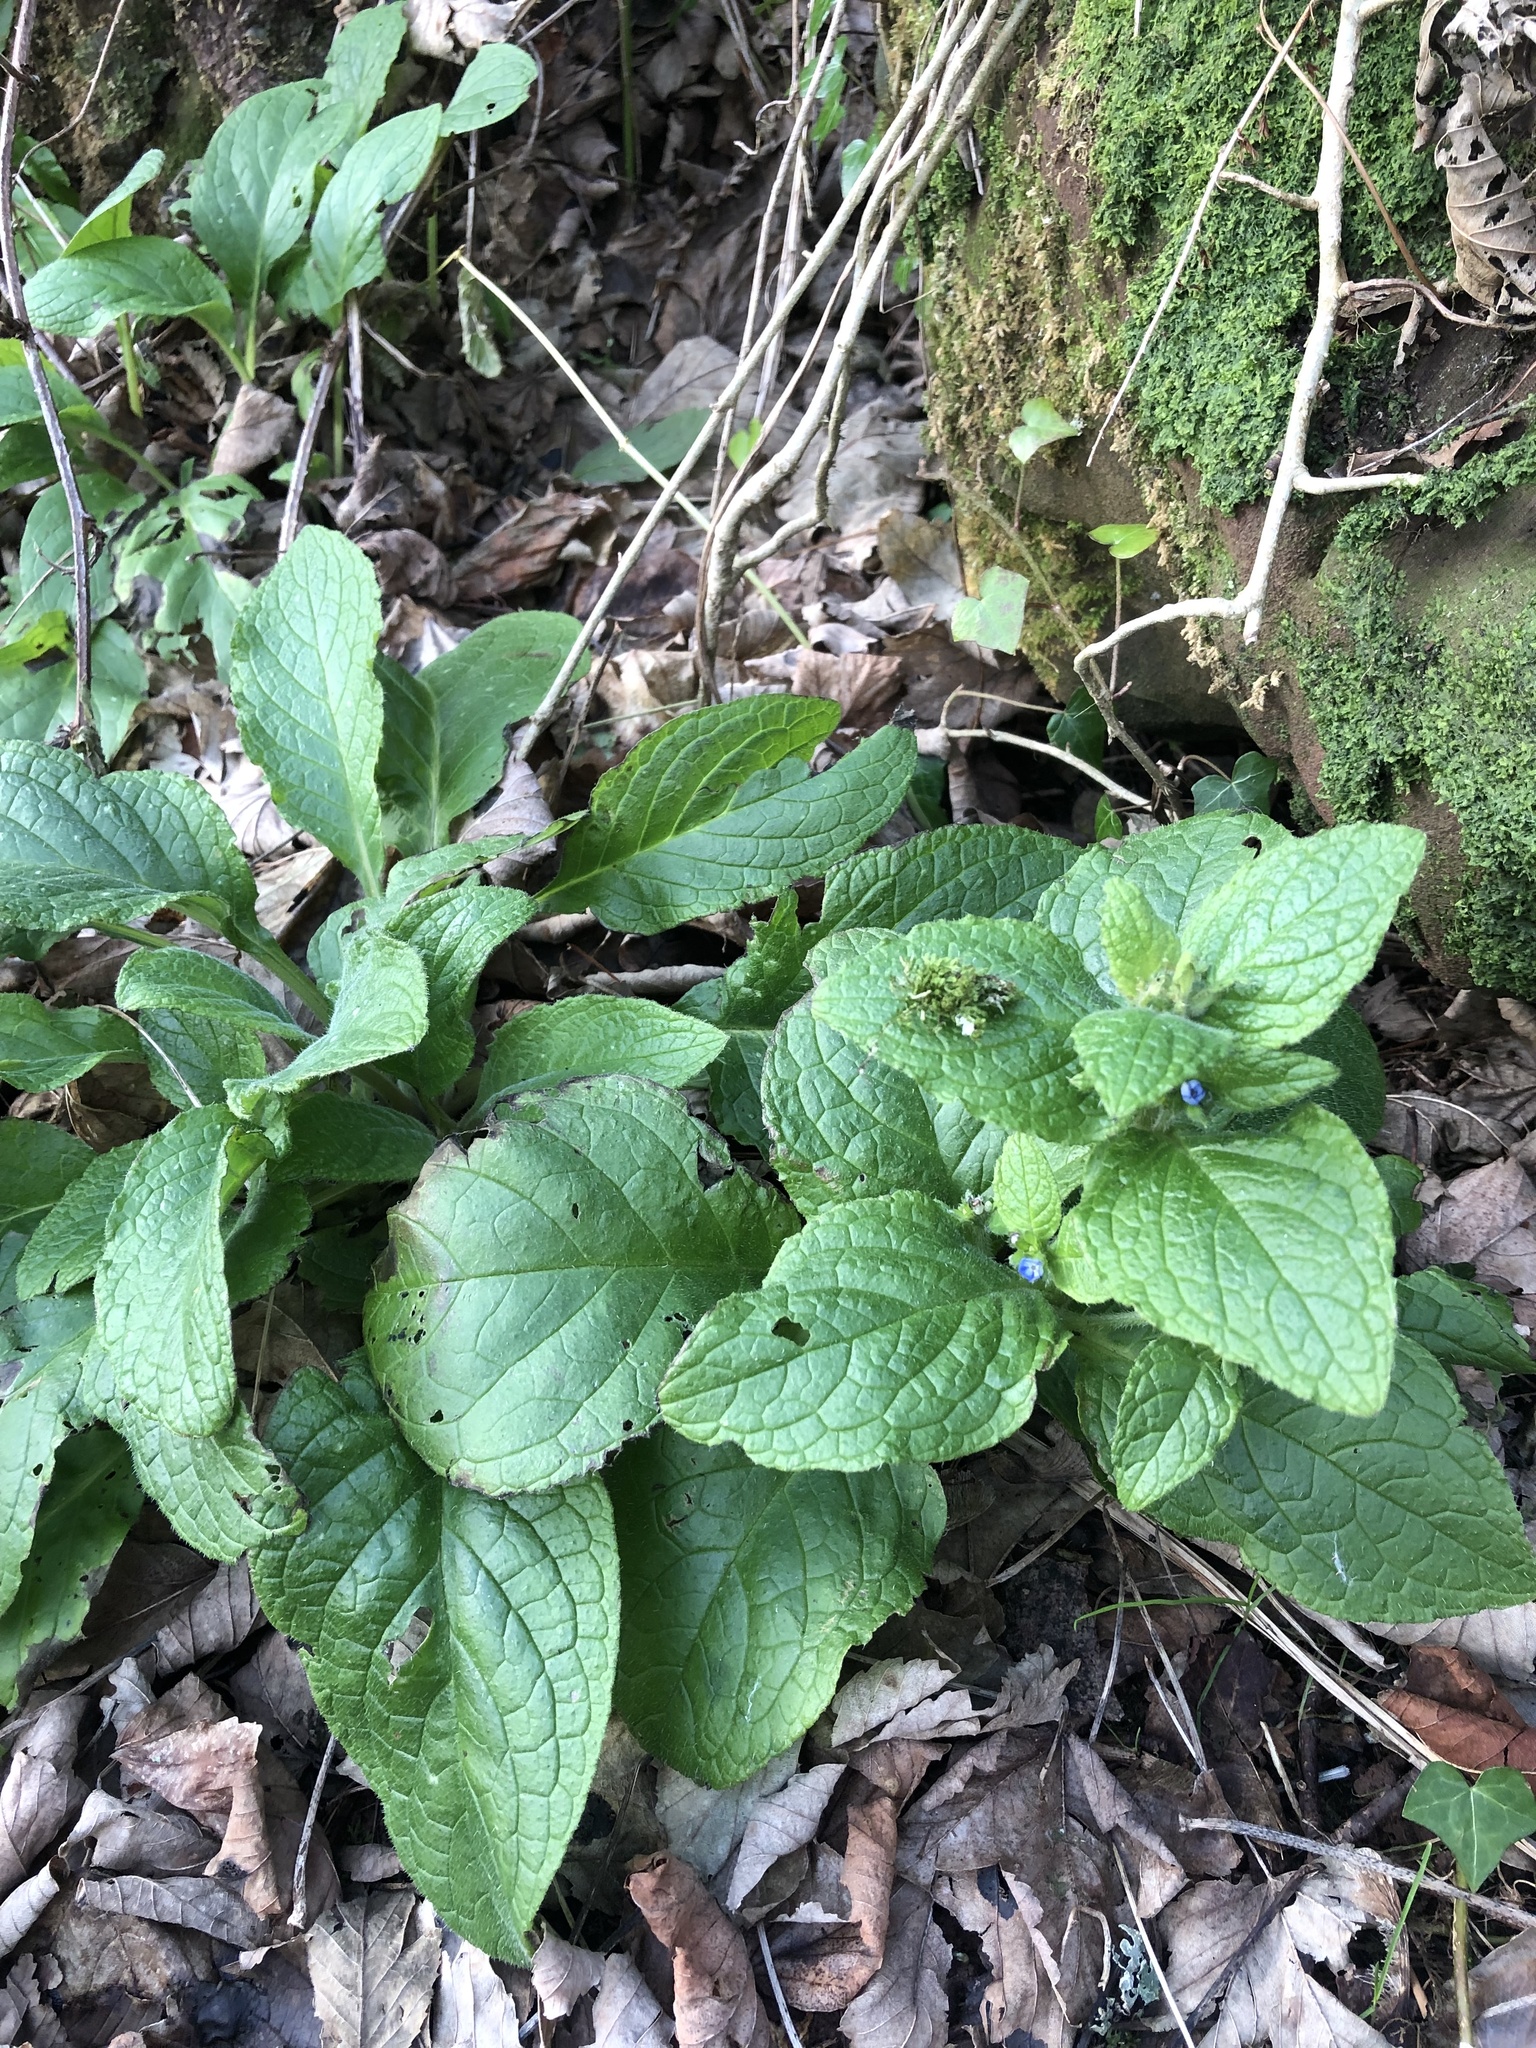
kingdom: Plantae
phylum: Tracheophyta
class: Magnoliopsida
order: Boraginales
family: Boraginaceae
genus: Pentaglottis
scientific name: Pentaglottis sempervirens
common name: Green alkanet
